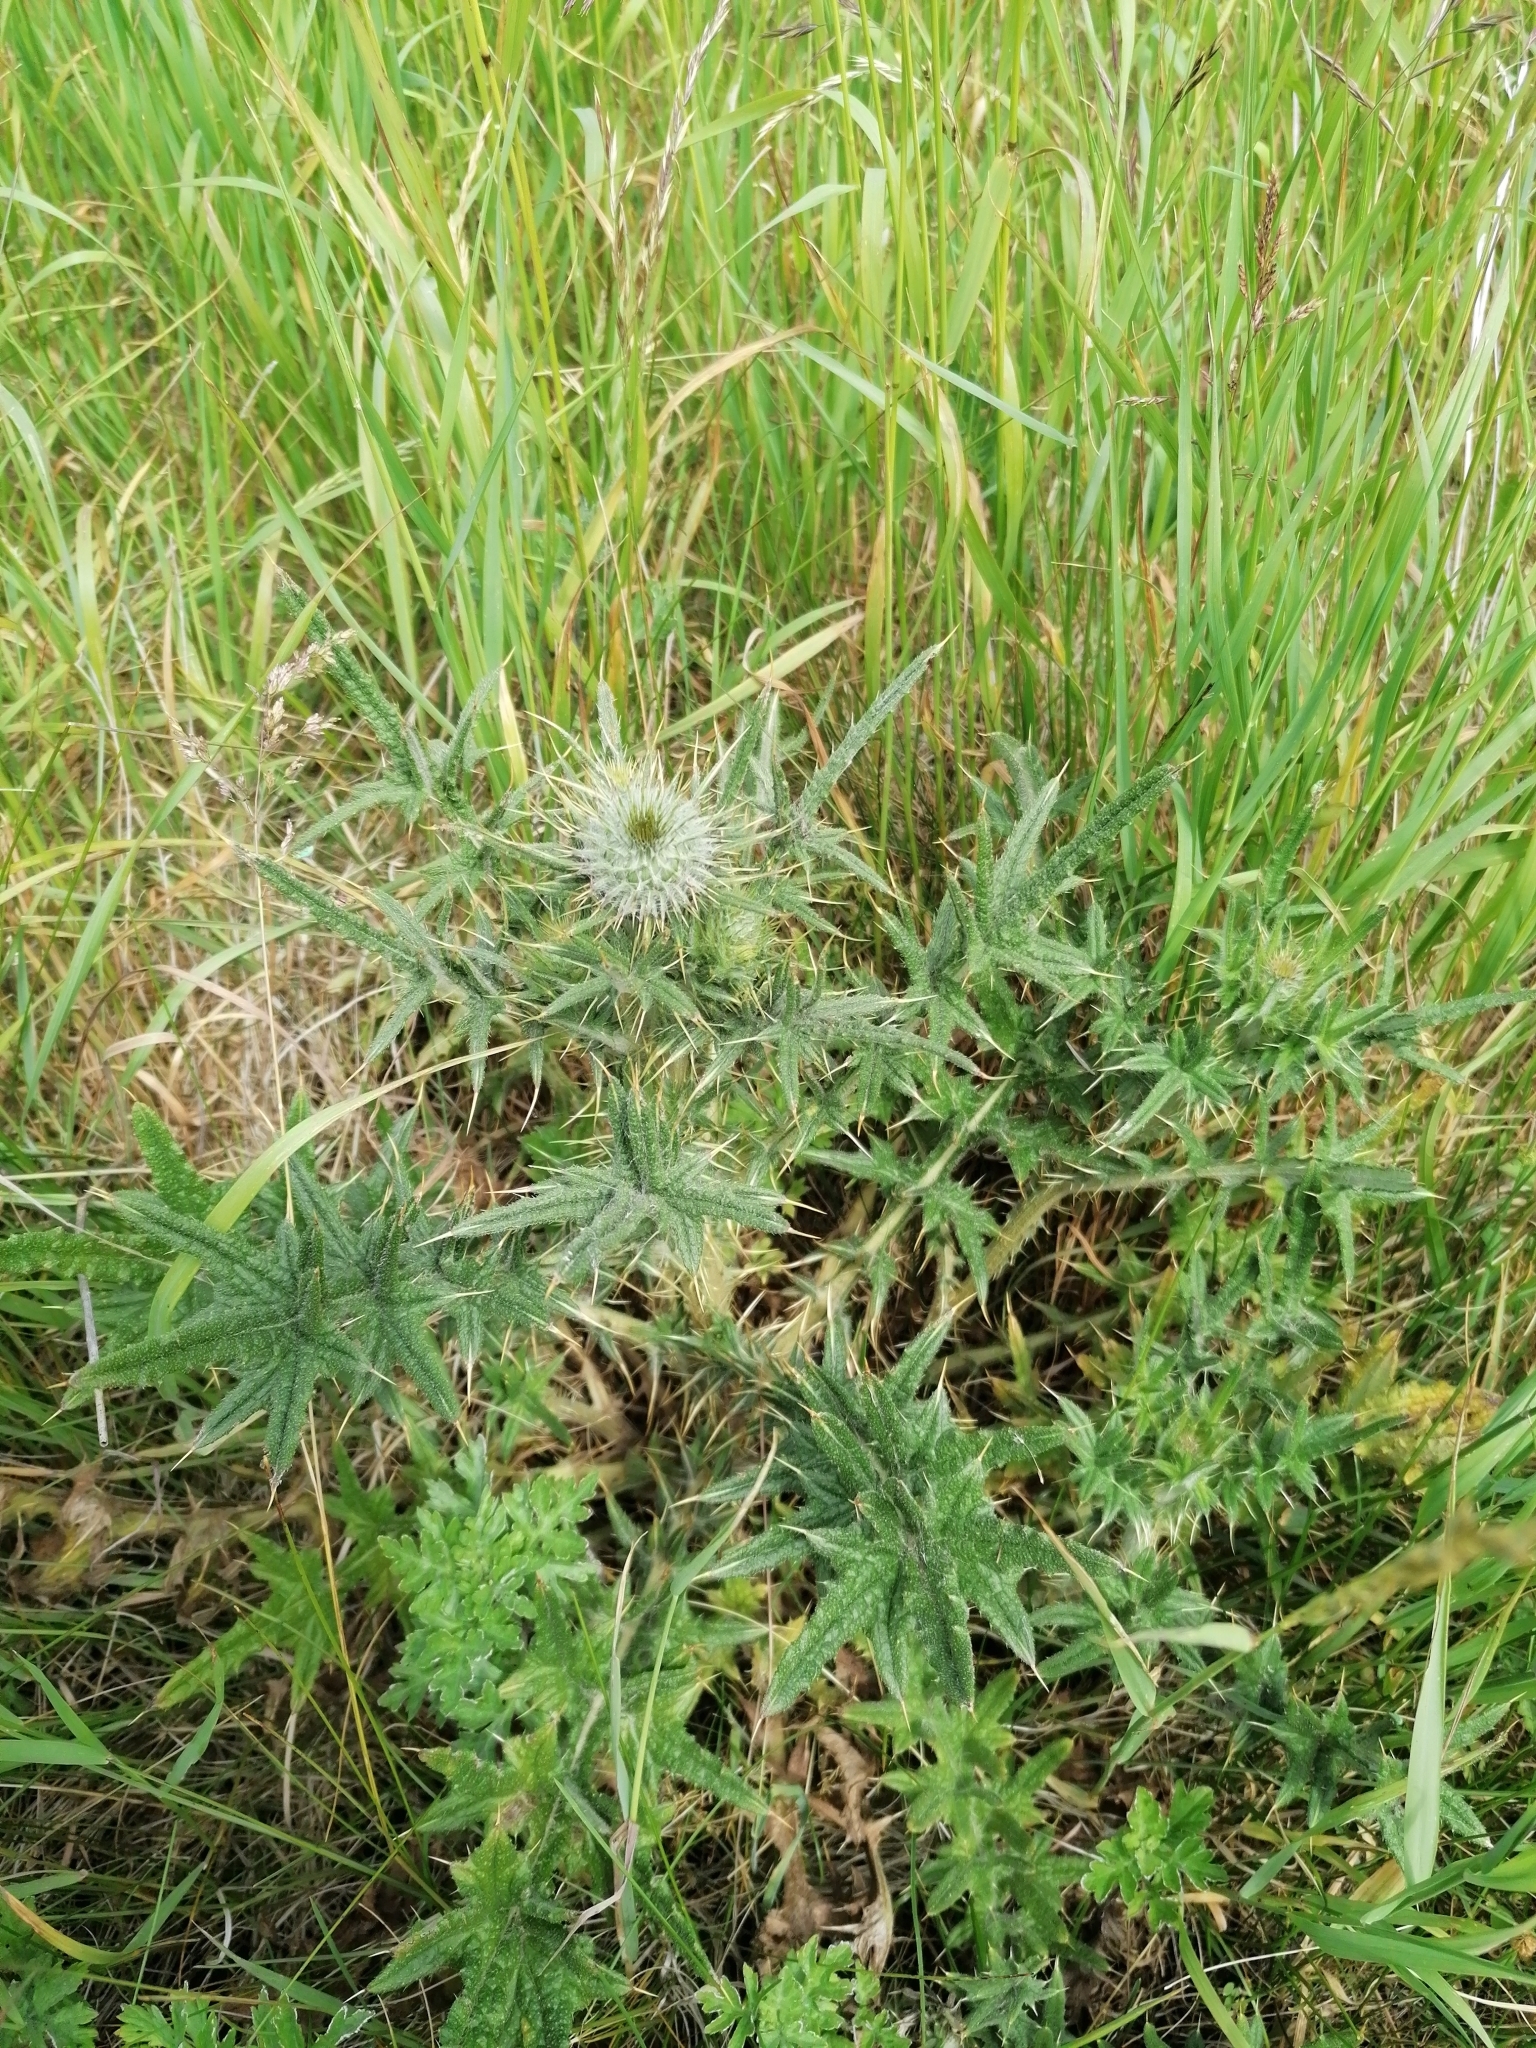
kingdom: Plantae
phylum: Tracheophyta
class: Magnoliopsida
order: Asterales
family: Asteraceae
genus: Cirsium
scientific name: Cirsium vulgare
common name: Bull thistle
